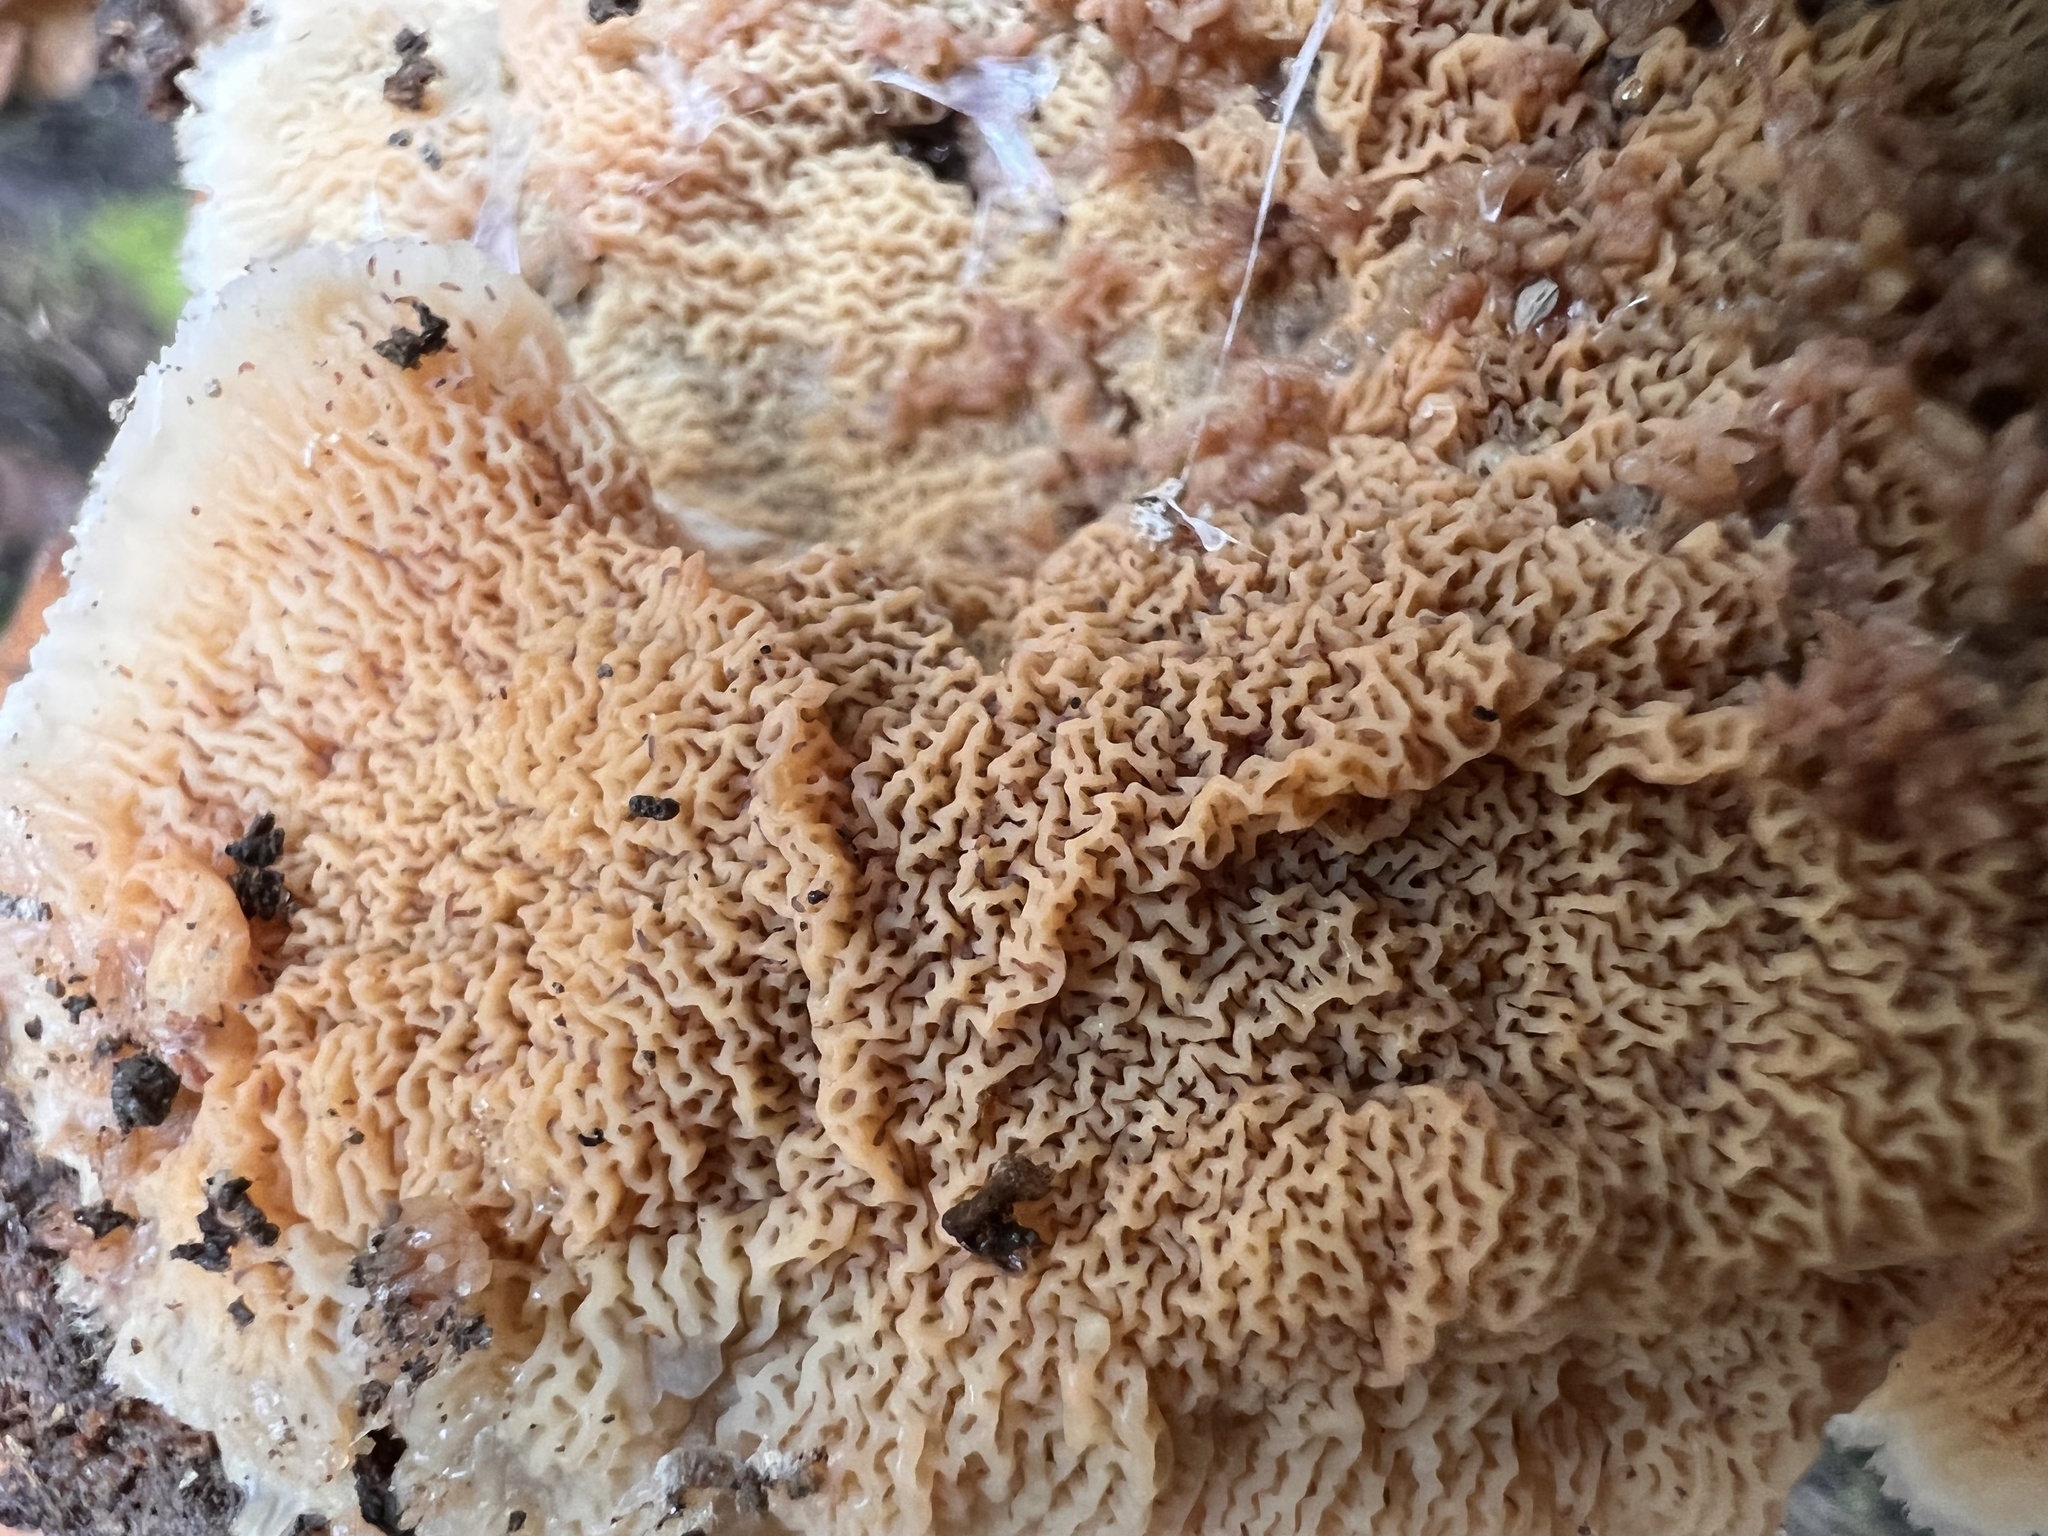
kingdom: Fungi
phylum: Basidiomycota
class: Agaricomycetes
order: Polyporales
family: Meruliaceae
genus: Phlebia
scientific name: Phlebia tremellosa
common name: Jelly rot
